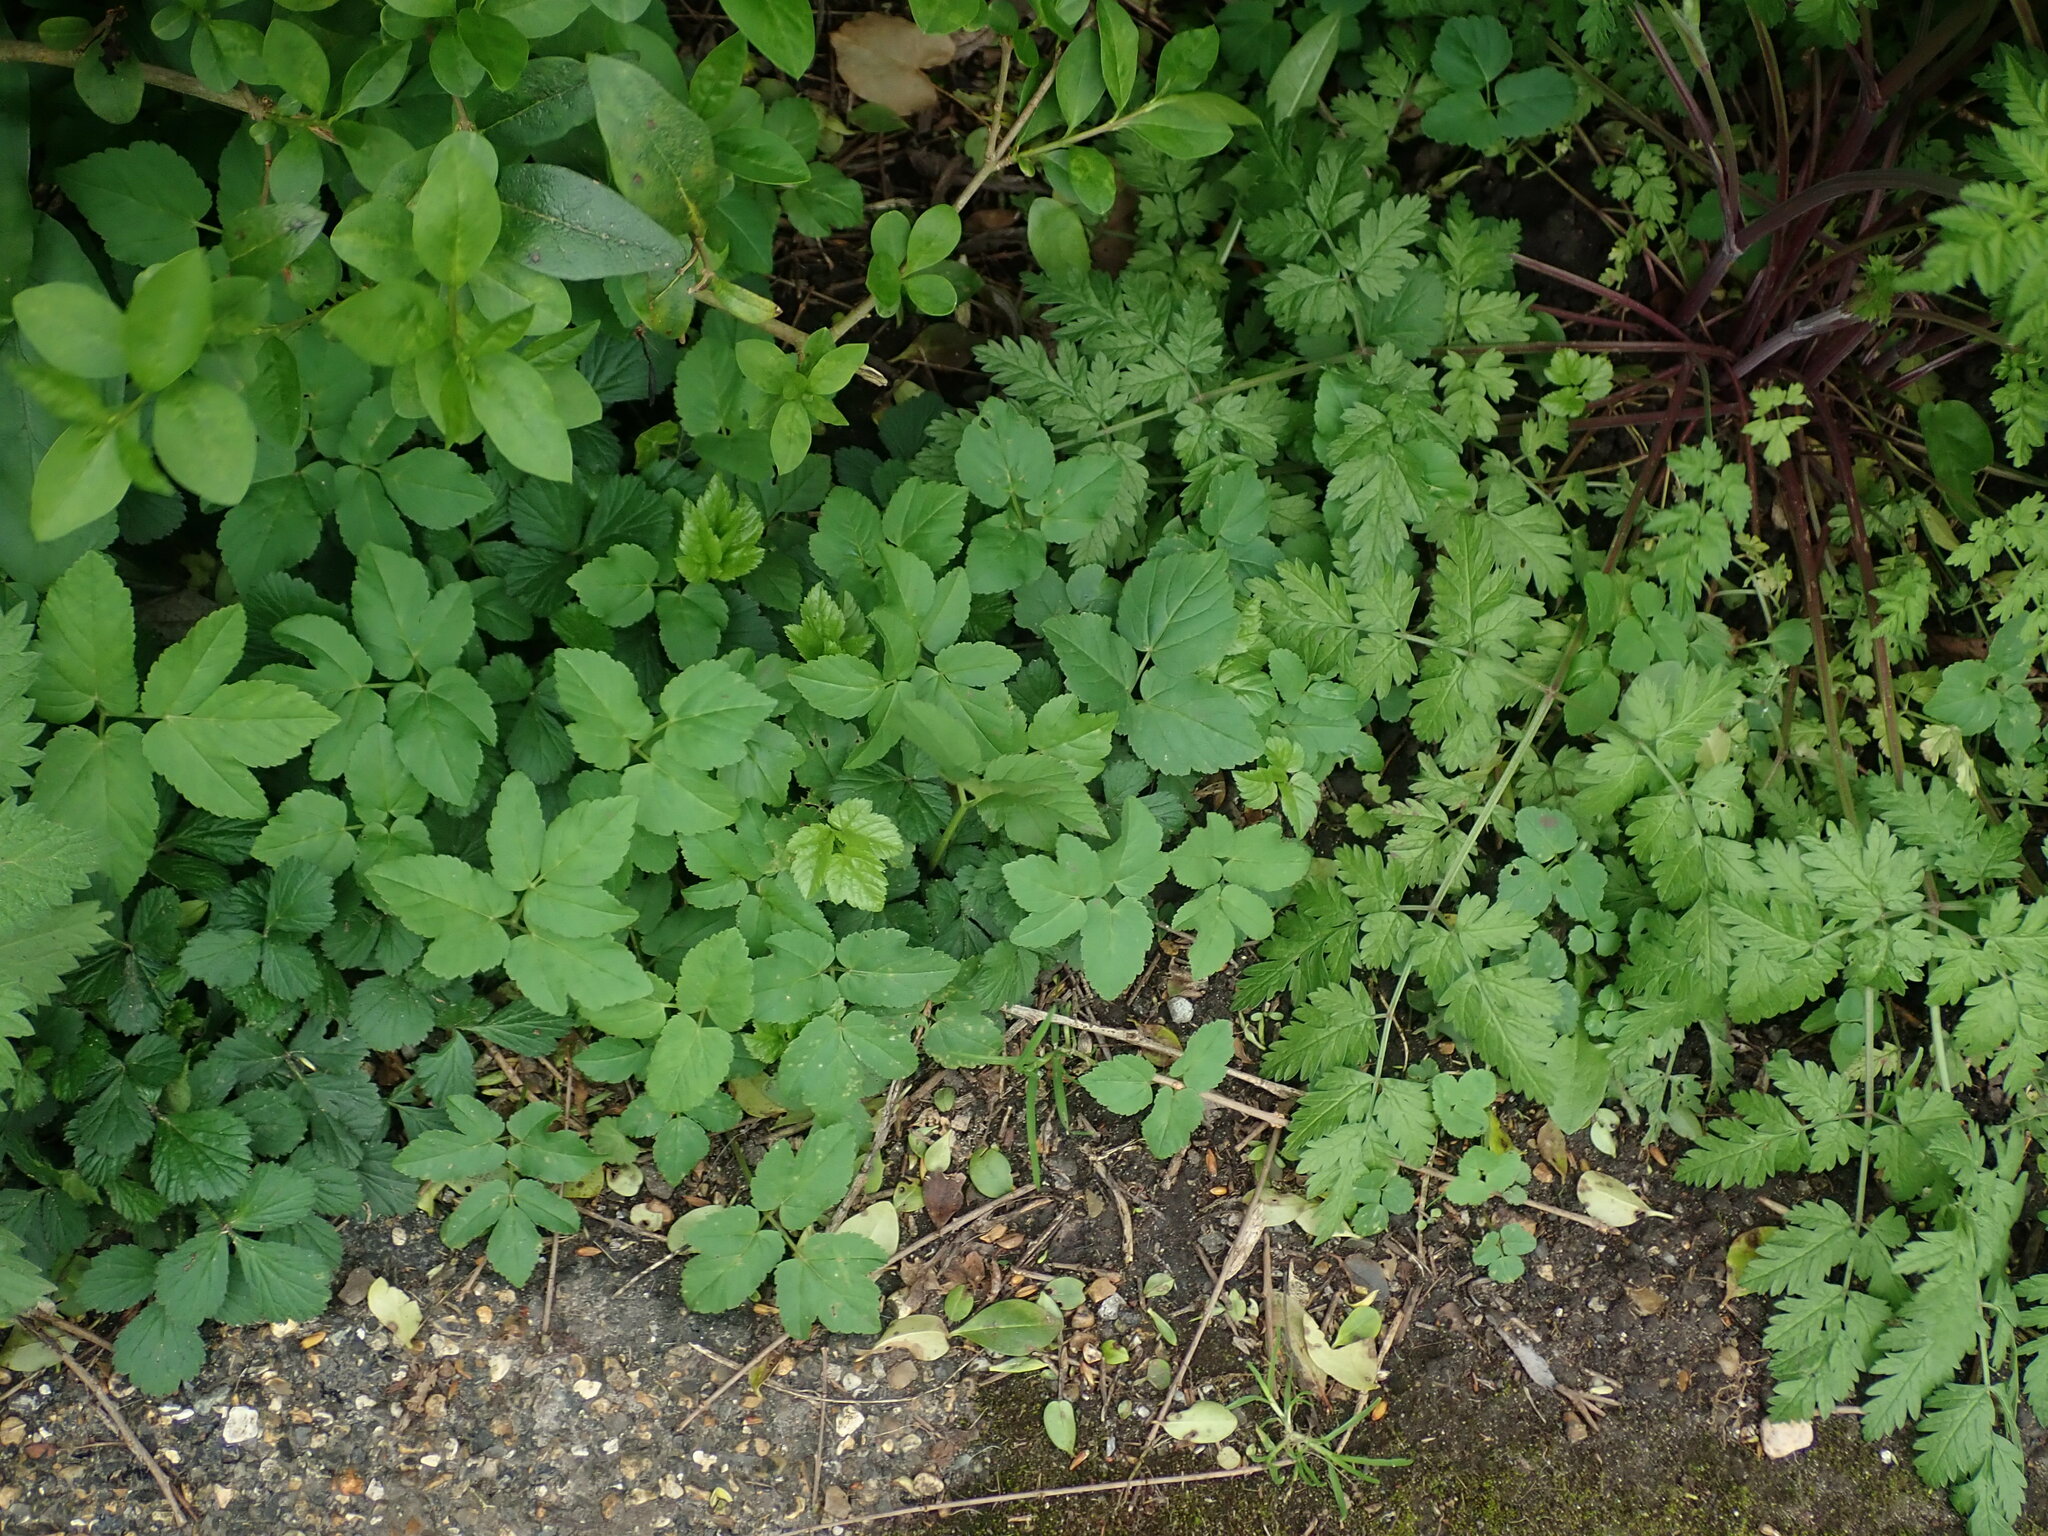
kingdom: Plantae
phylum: Tracheophyta
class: Magnoliopsida
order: Apiales
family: Apiaceae
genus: Aegopodium
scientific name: Aegopodium podagraria
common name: Ground-elder
